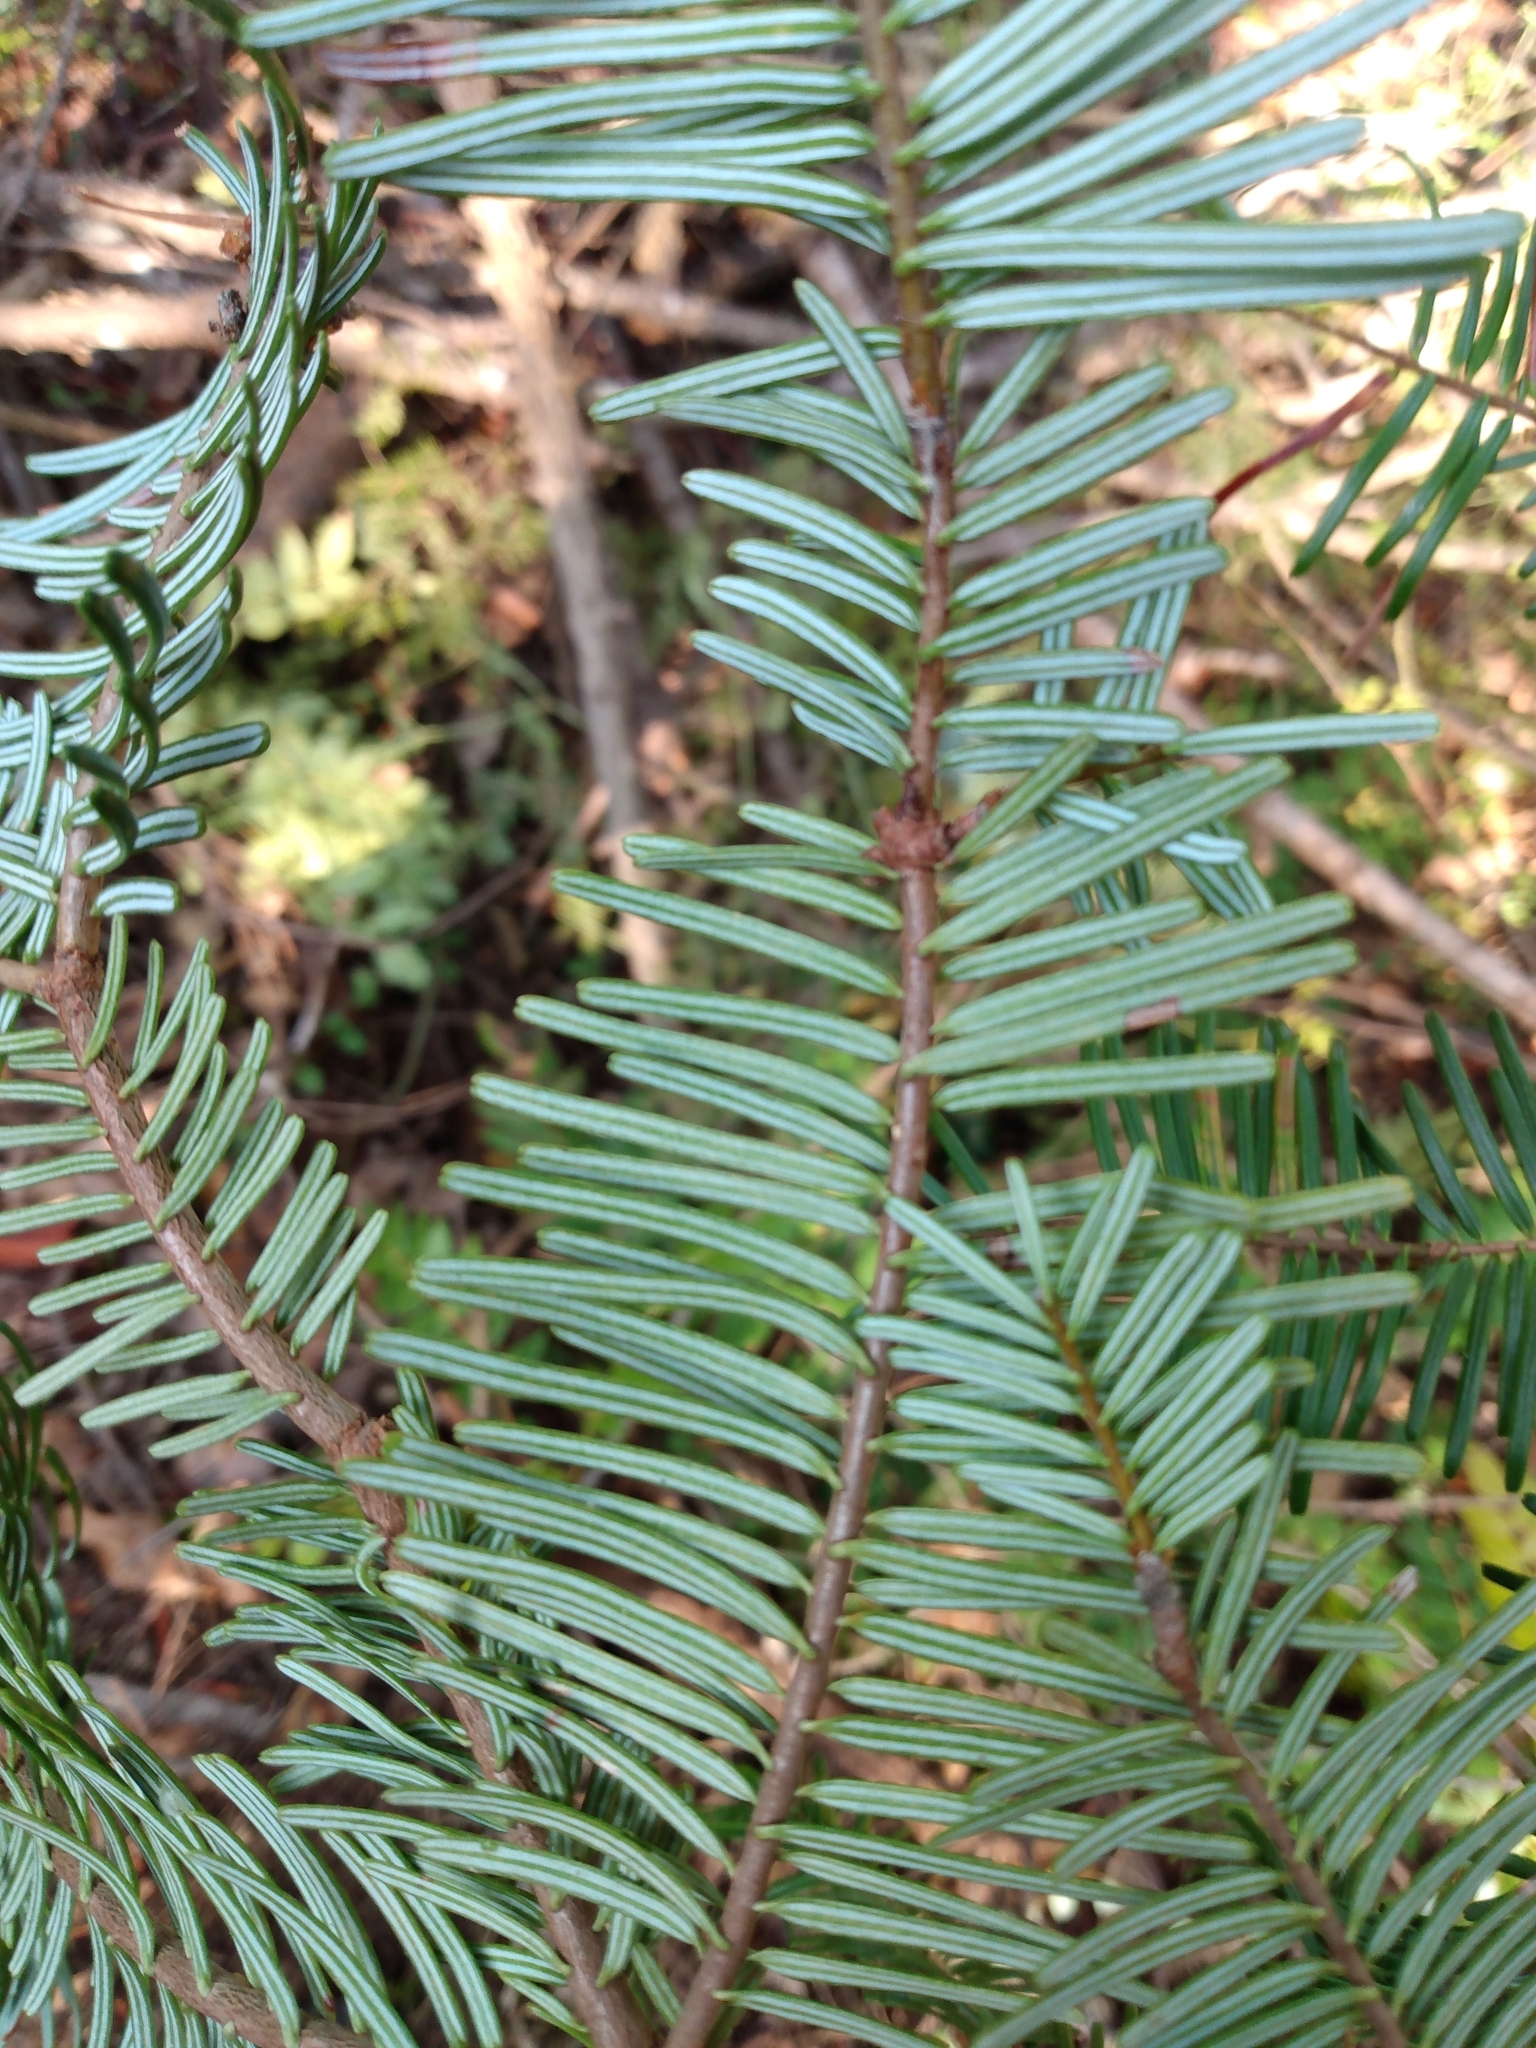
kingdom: Plantae
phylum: Tracheophyta
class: Pinopsida
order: Pinales
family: Pinaceae
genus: Abies
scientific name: Abies grandis
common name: Giant fir
